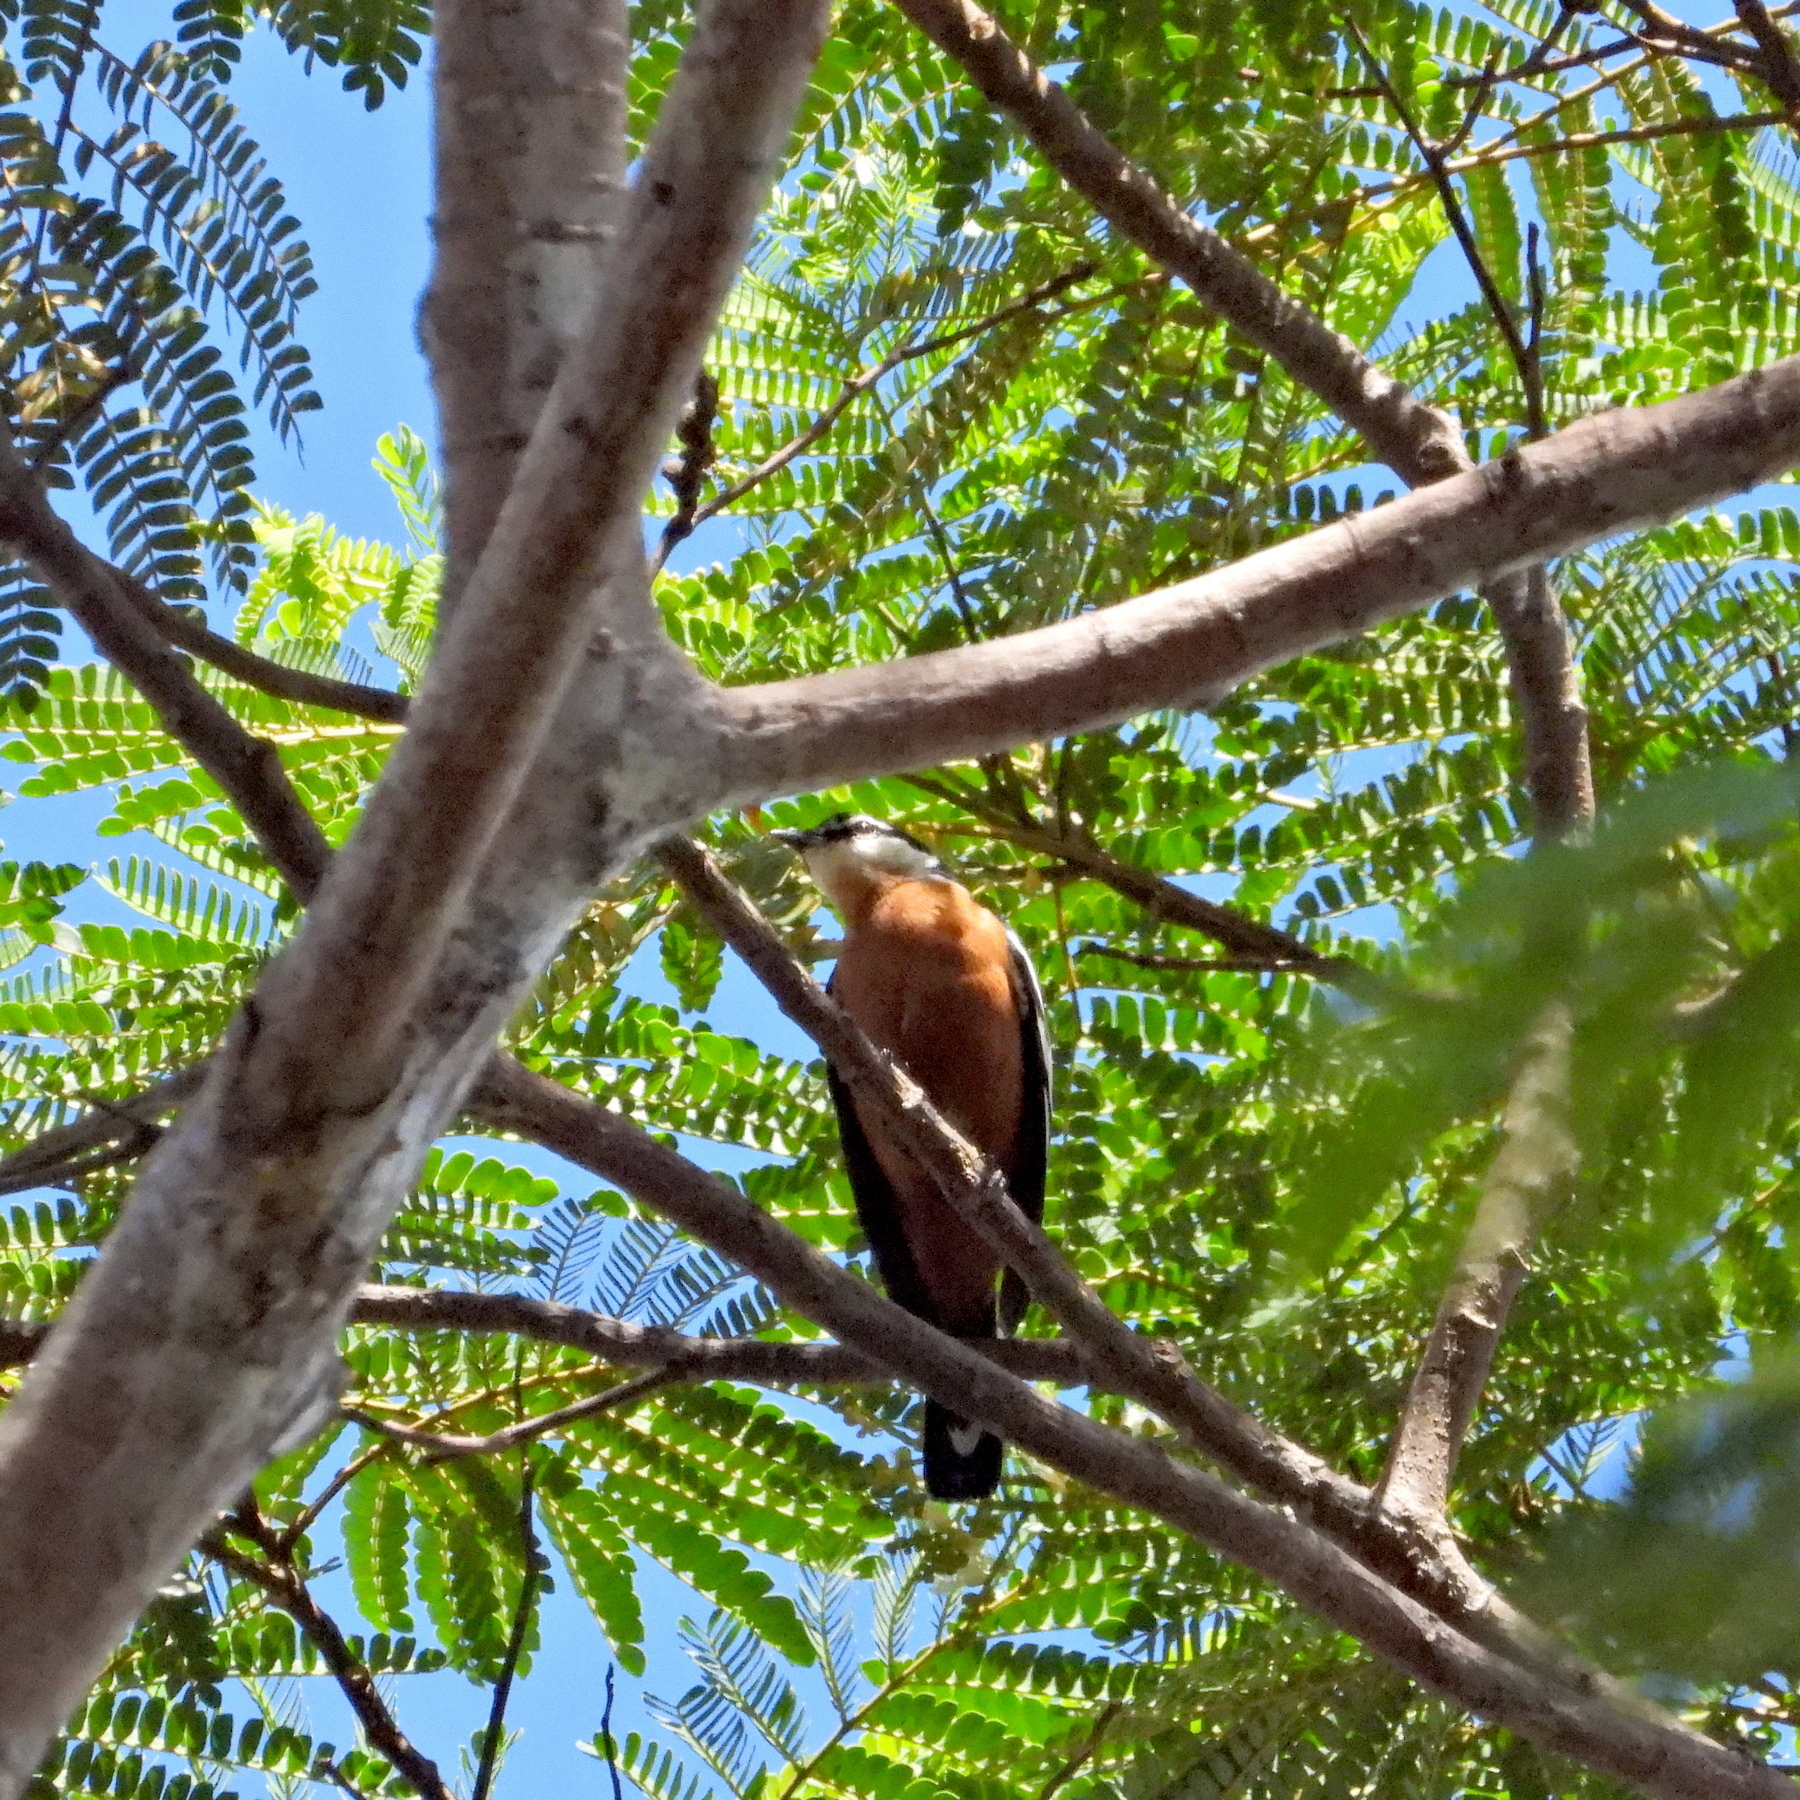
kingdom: Animalia
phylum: Chordata
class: Aves
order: Passeriformes
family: Campephagidae
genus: Lalage
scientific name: Lalage aurea
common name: Rufous-bellied triller
